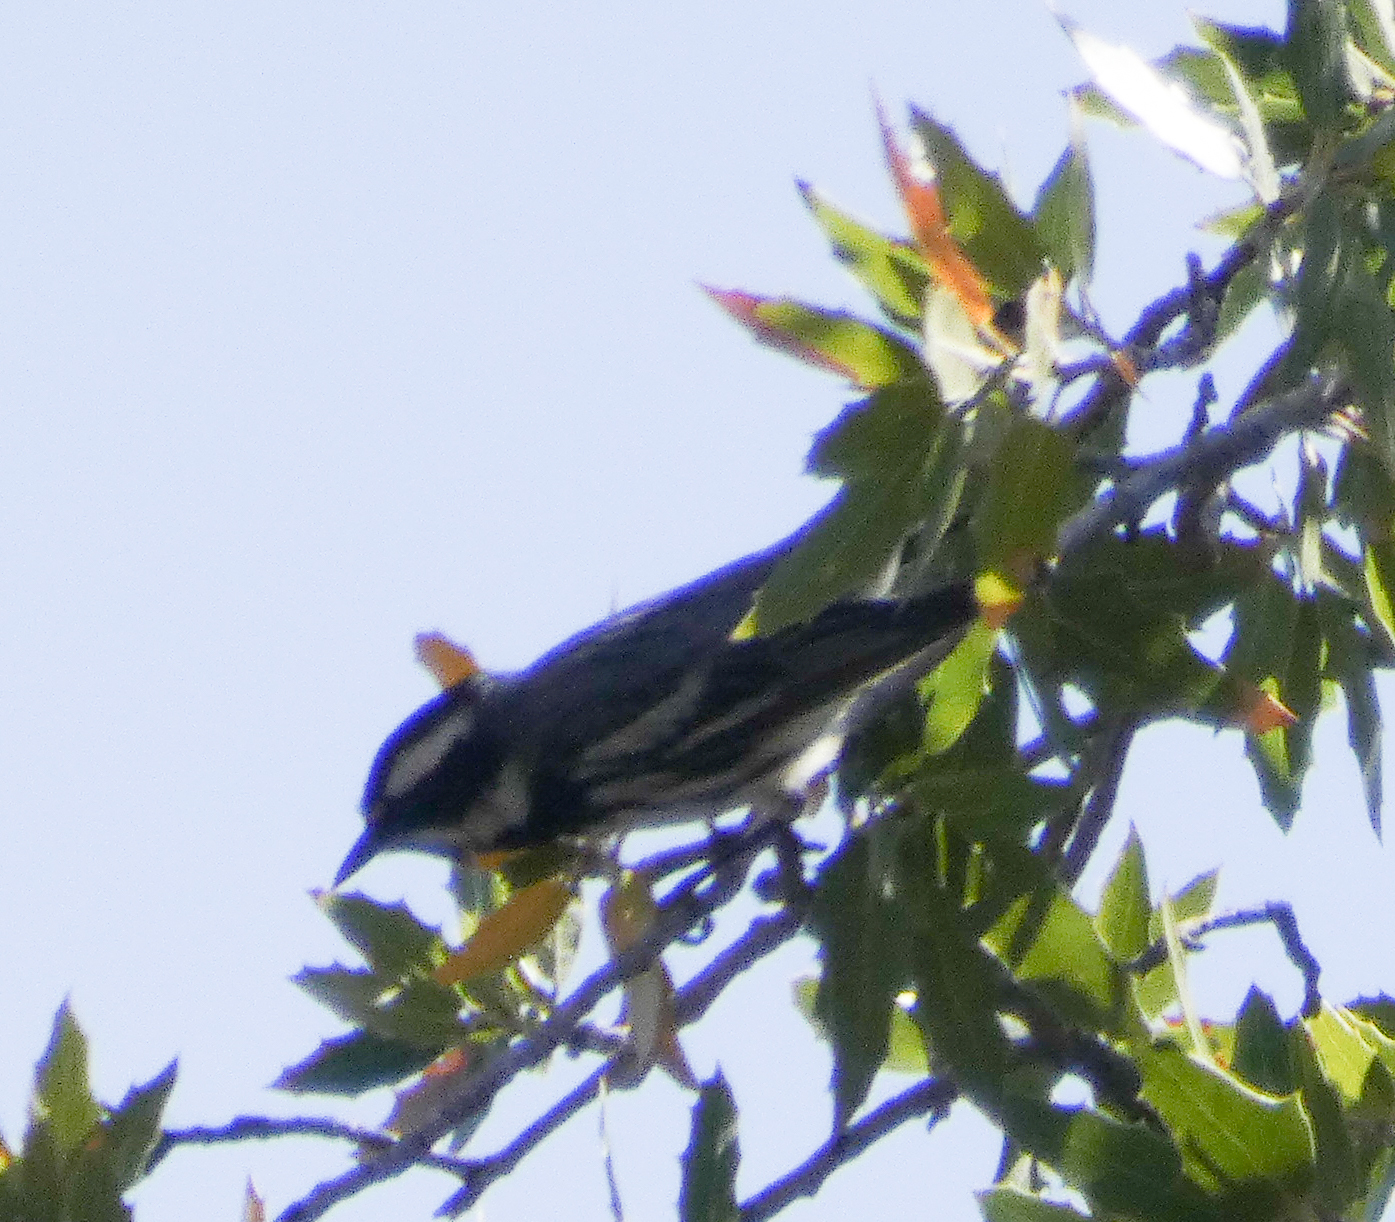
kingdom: Animalia
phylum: Chordata
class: Aves
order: Passeriformes
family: Parulidae
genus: Setophaga
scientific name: Setophaga nigrescens
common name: Black-throated gray warbler
